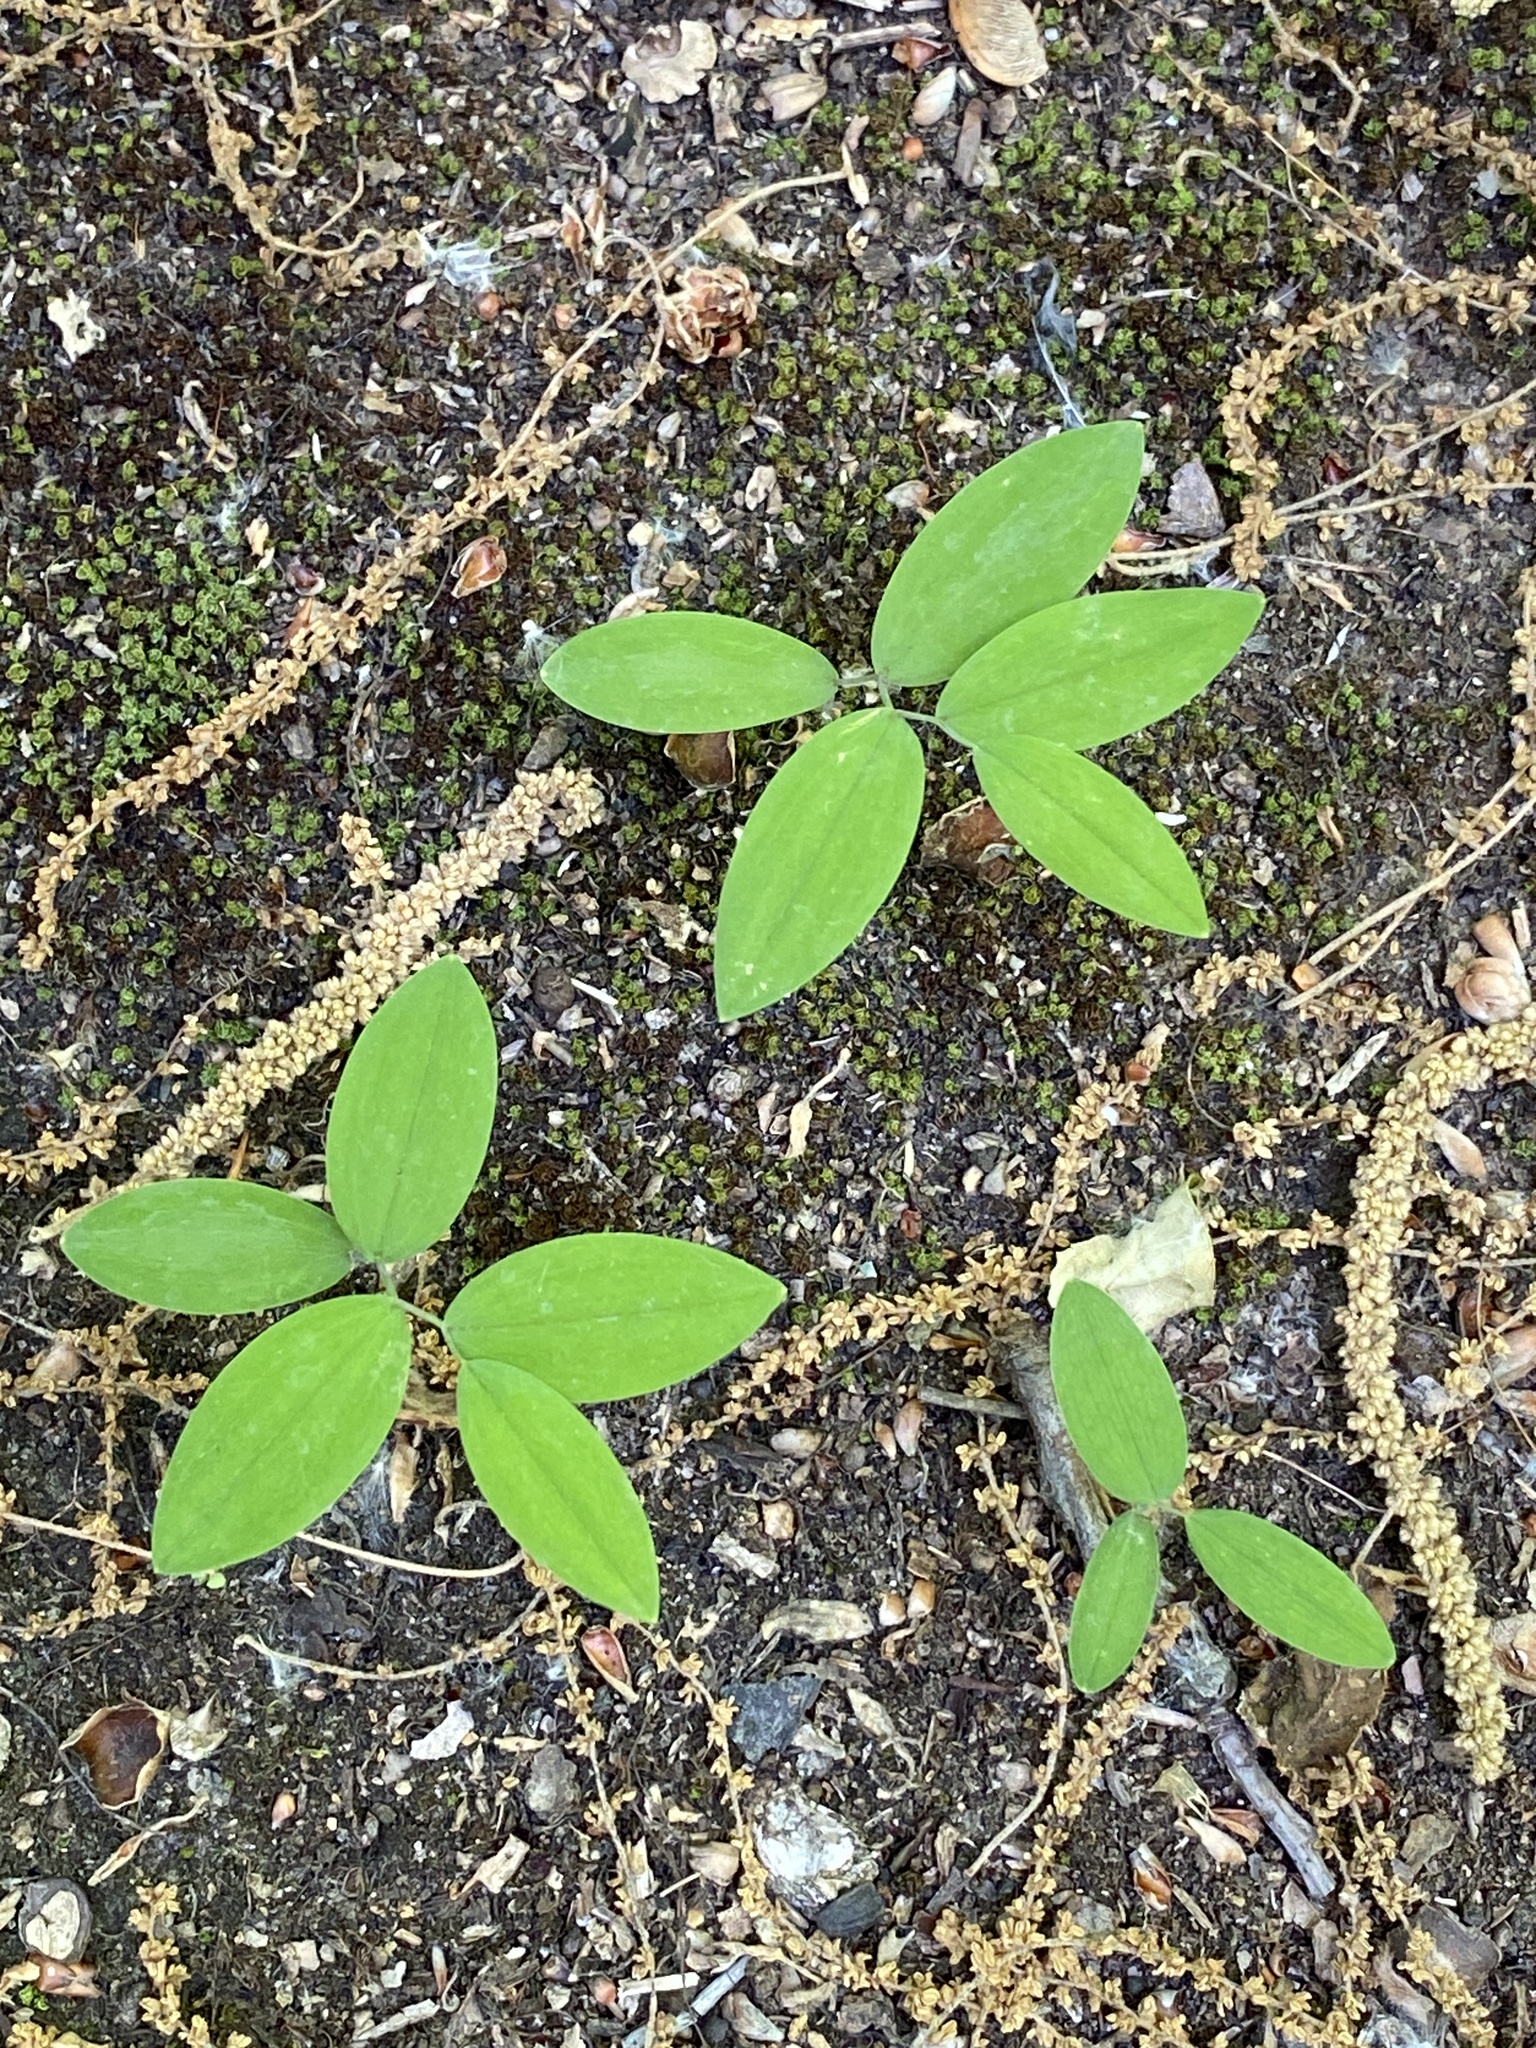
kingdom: Plantae
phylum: Tracheophyta
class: Liliopsida
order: Liliales
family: Colchicaceae
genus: Uvularia
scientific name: Uvularia sessilifolia
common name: Straw-lily
